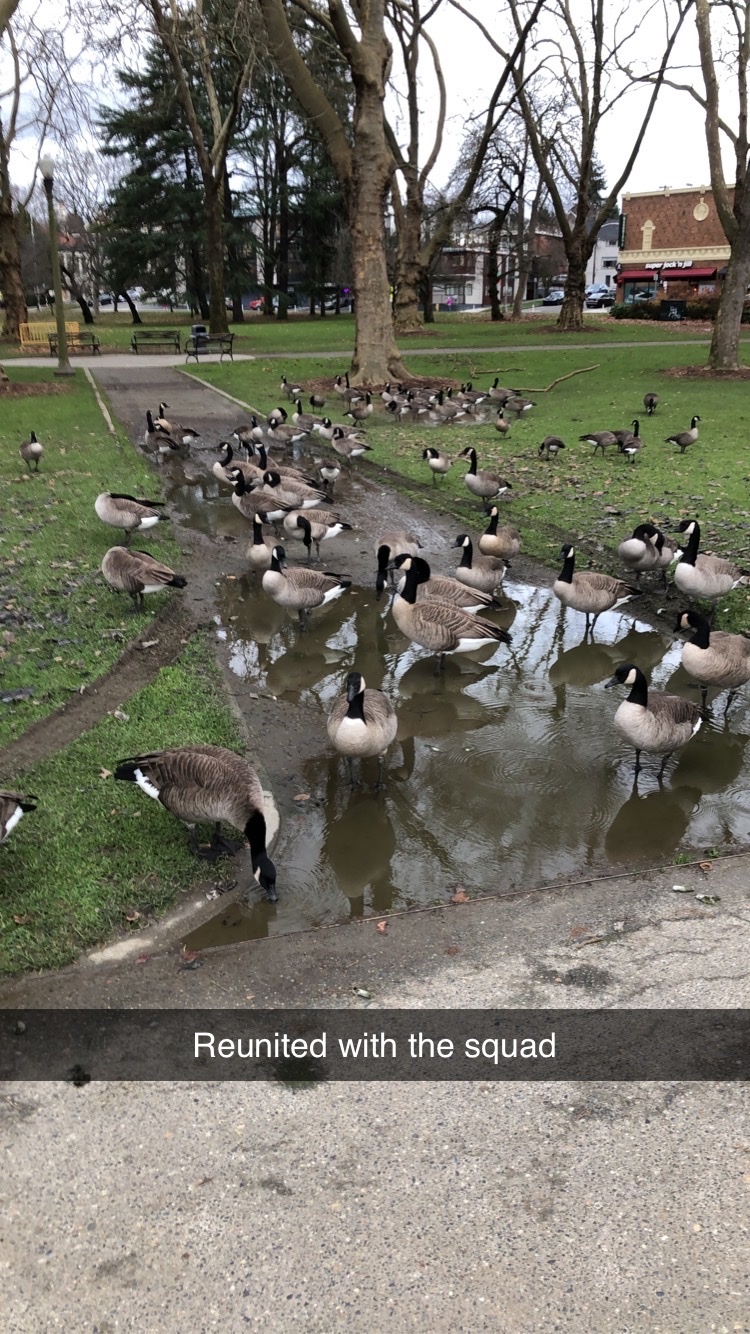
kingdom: Animalia
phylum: Chordata
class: Aves
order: Anseriformes
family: Anatidae
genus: Branta
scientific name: Branta canadensis
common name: Canada goose
